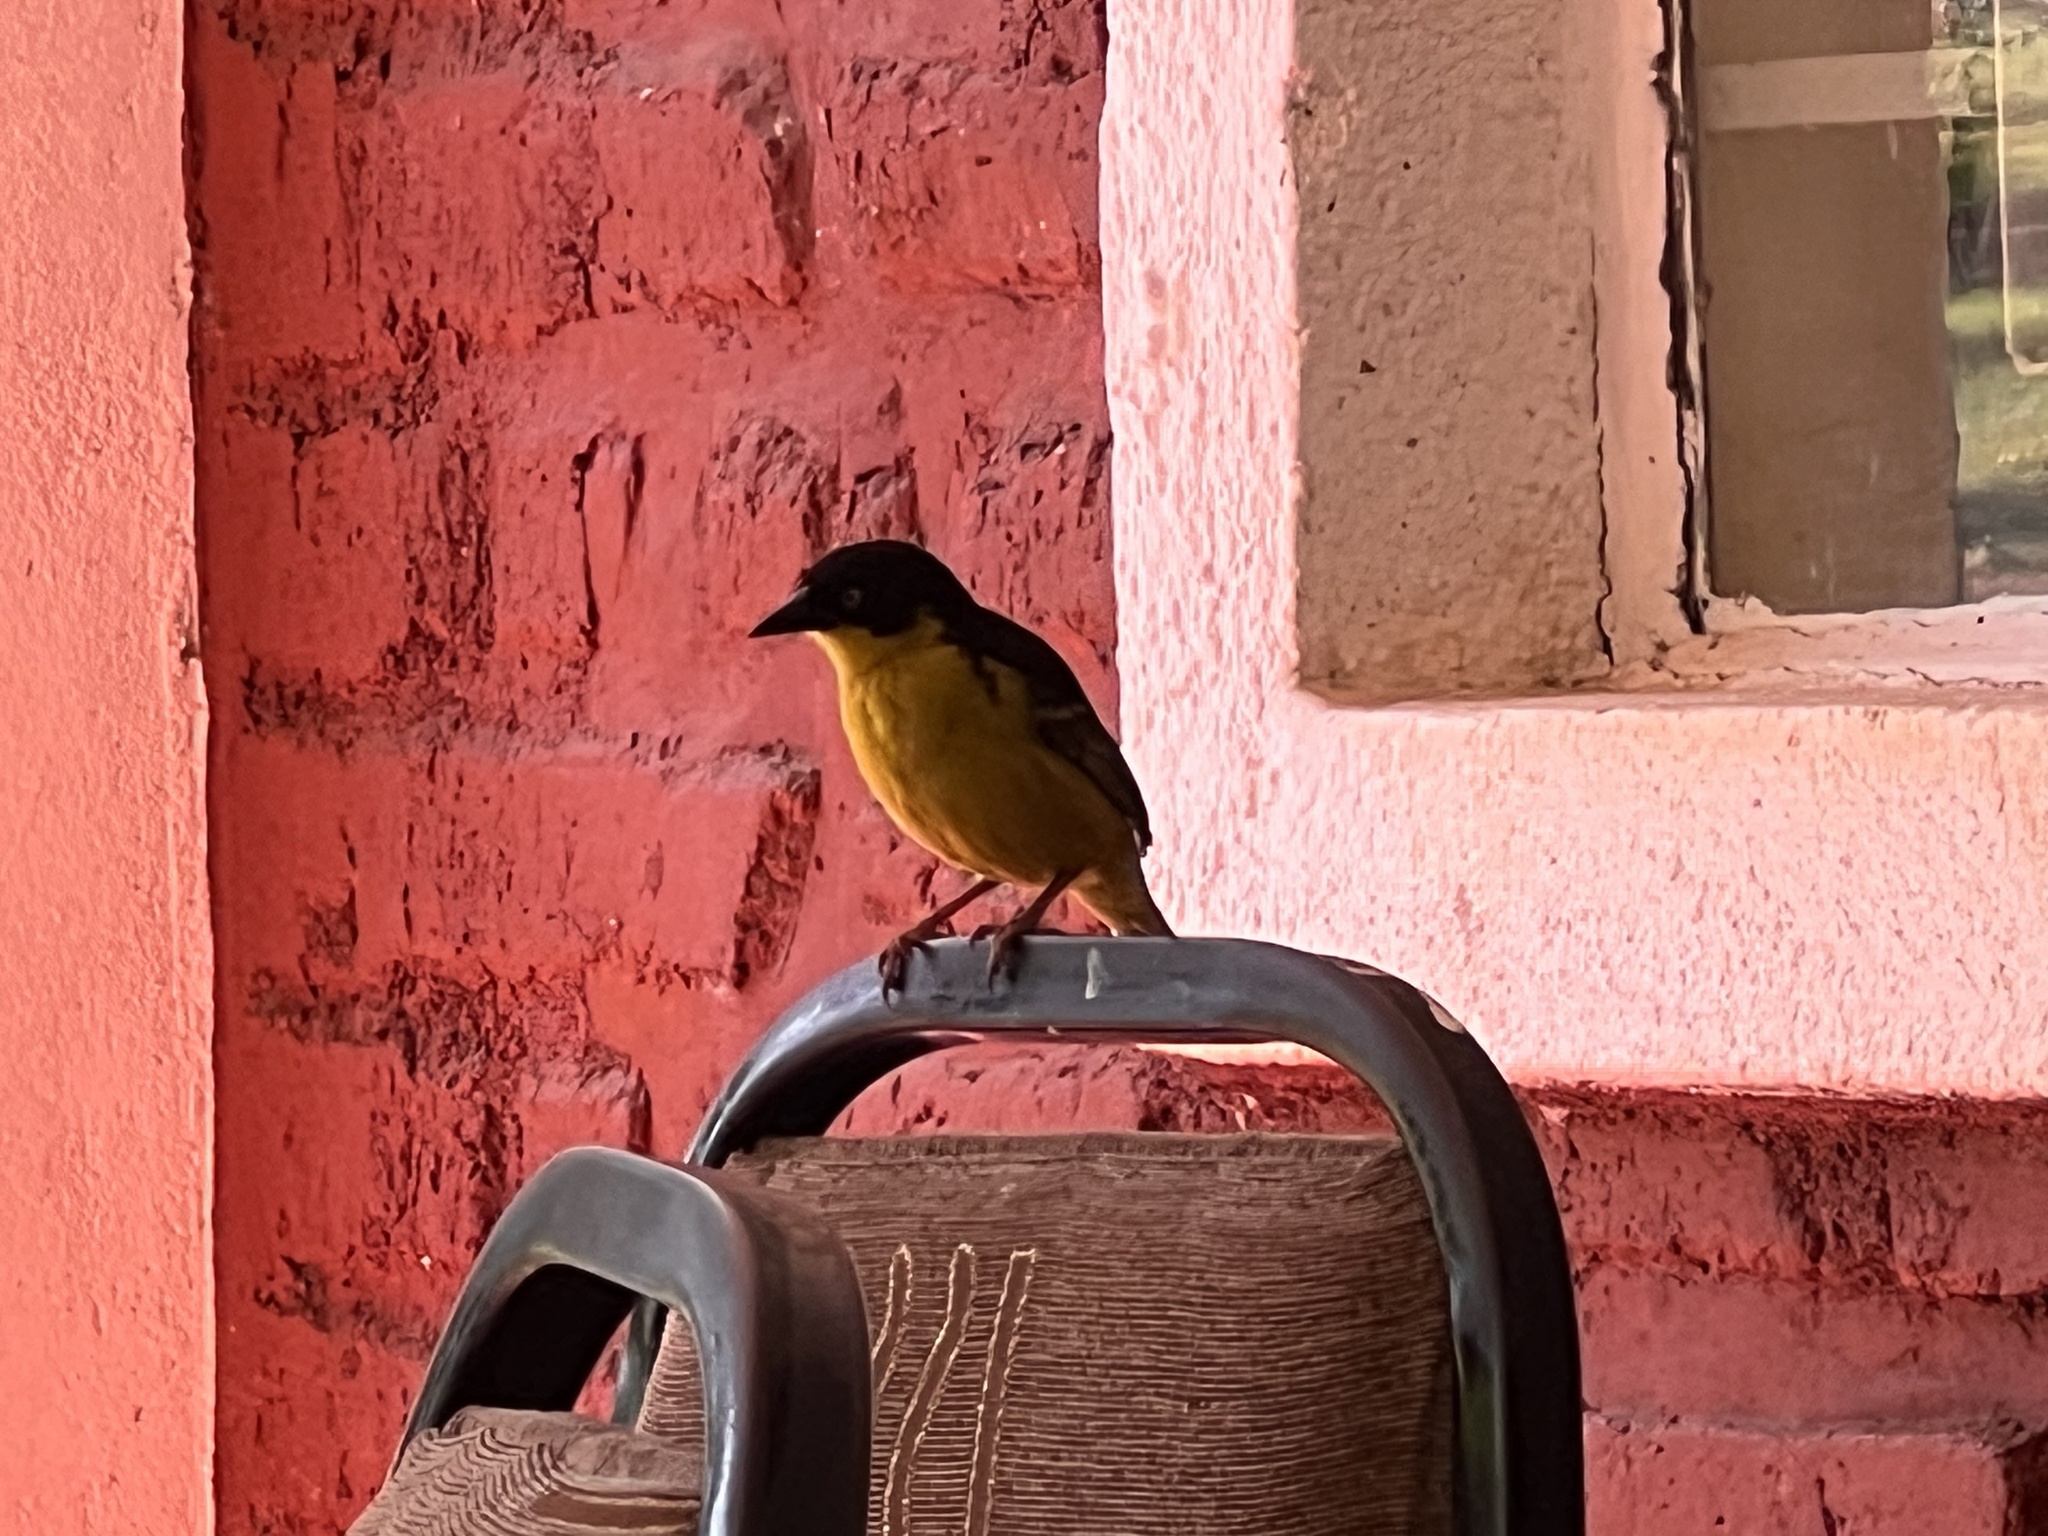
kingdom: Animalia
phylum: Chordata
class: Aves
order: Passeriformes
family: Ploceidae
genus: Ploceus
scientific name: Ploceus baglafecht
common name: Baglafecht weaver
